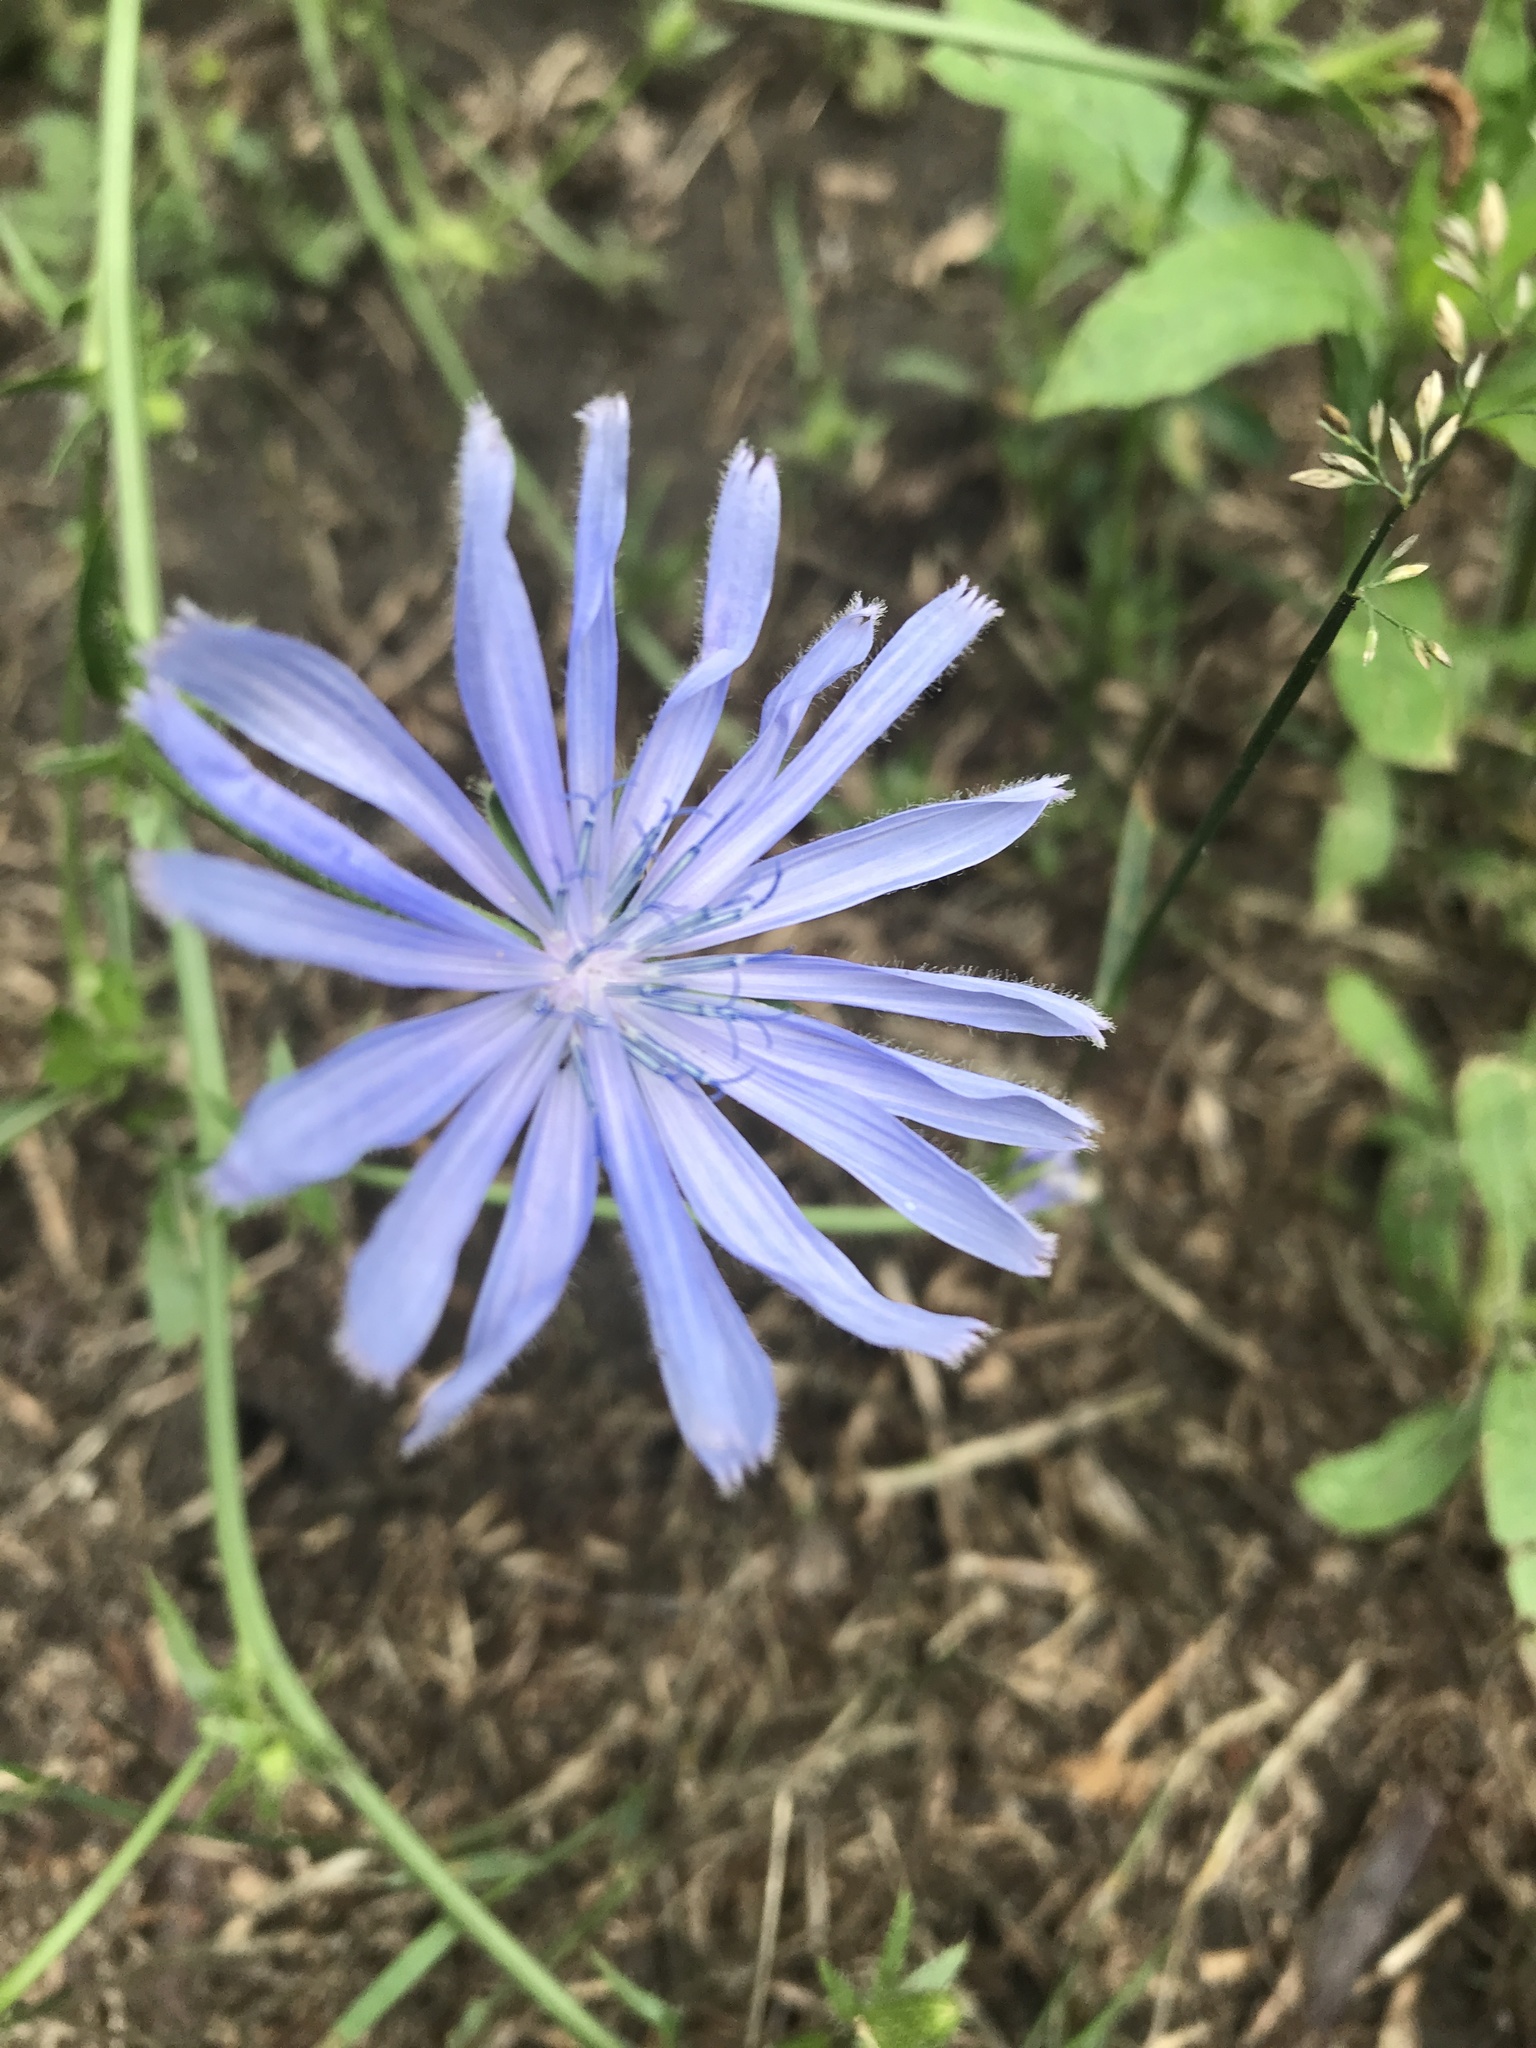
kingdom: Plantae
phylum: Tracheophyta
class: Magnoliopsida
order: Asterales
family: Asteraceae
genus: Cichorium
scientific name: Cichorium intybus
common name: Chicory
